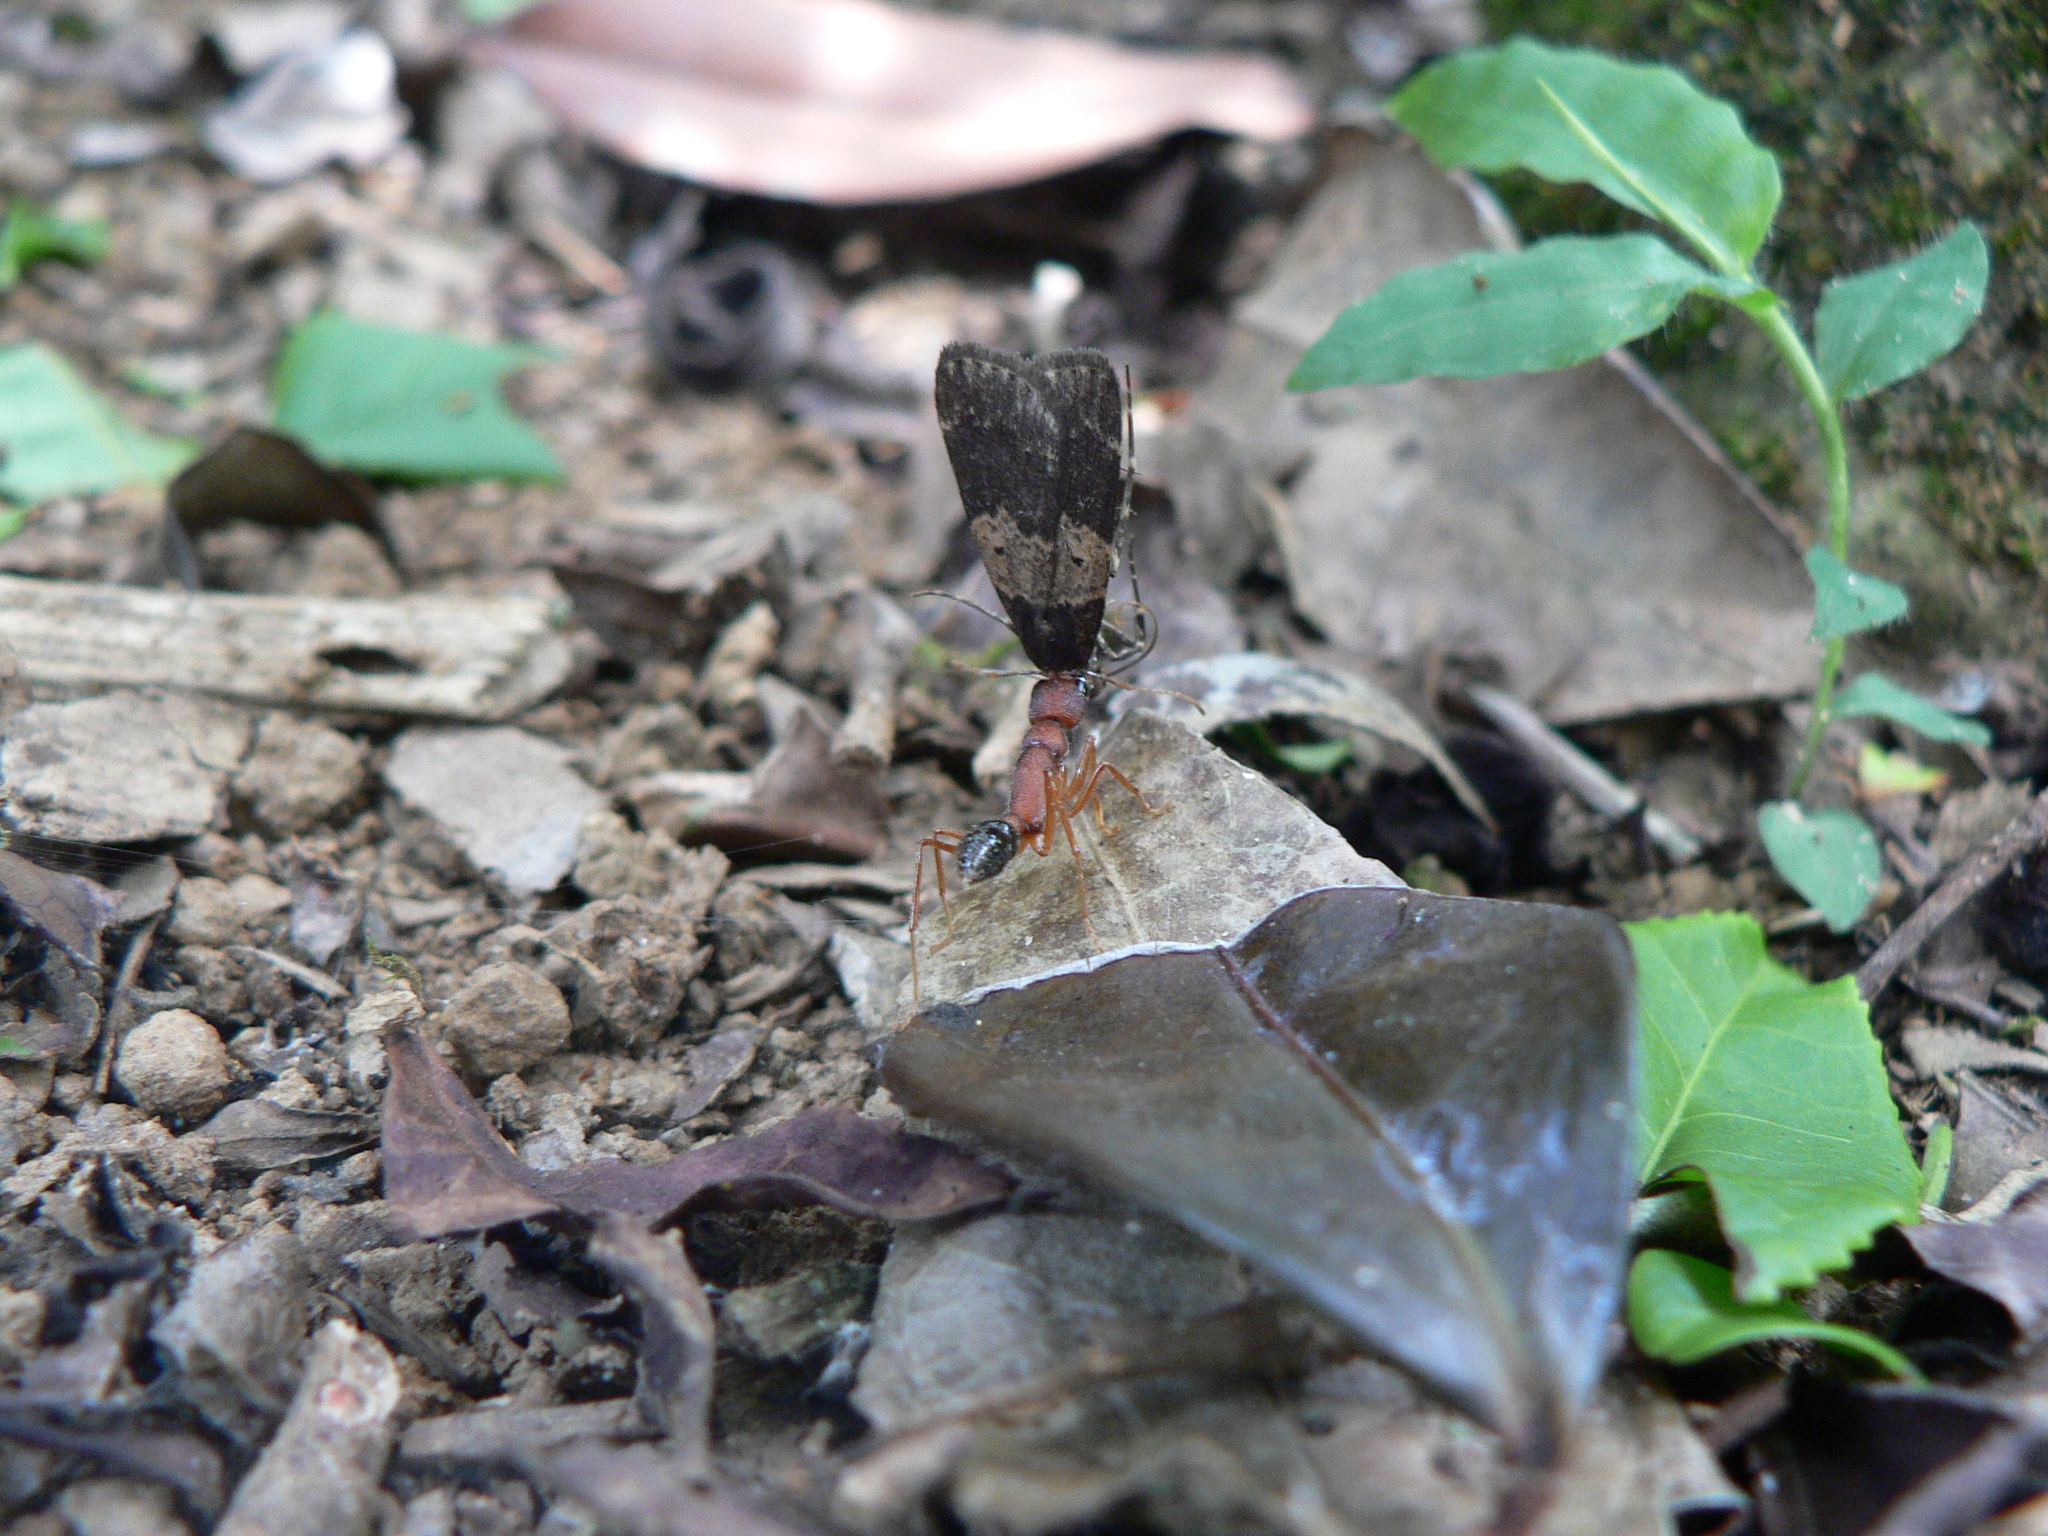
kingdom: Animalia
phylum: Arthropoda
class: Insecta
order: Hymenoptera
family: Formicidae
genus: Harpegnathos
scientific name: Harpegnathos saltator
